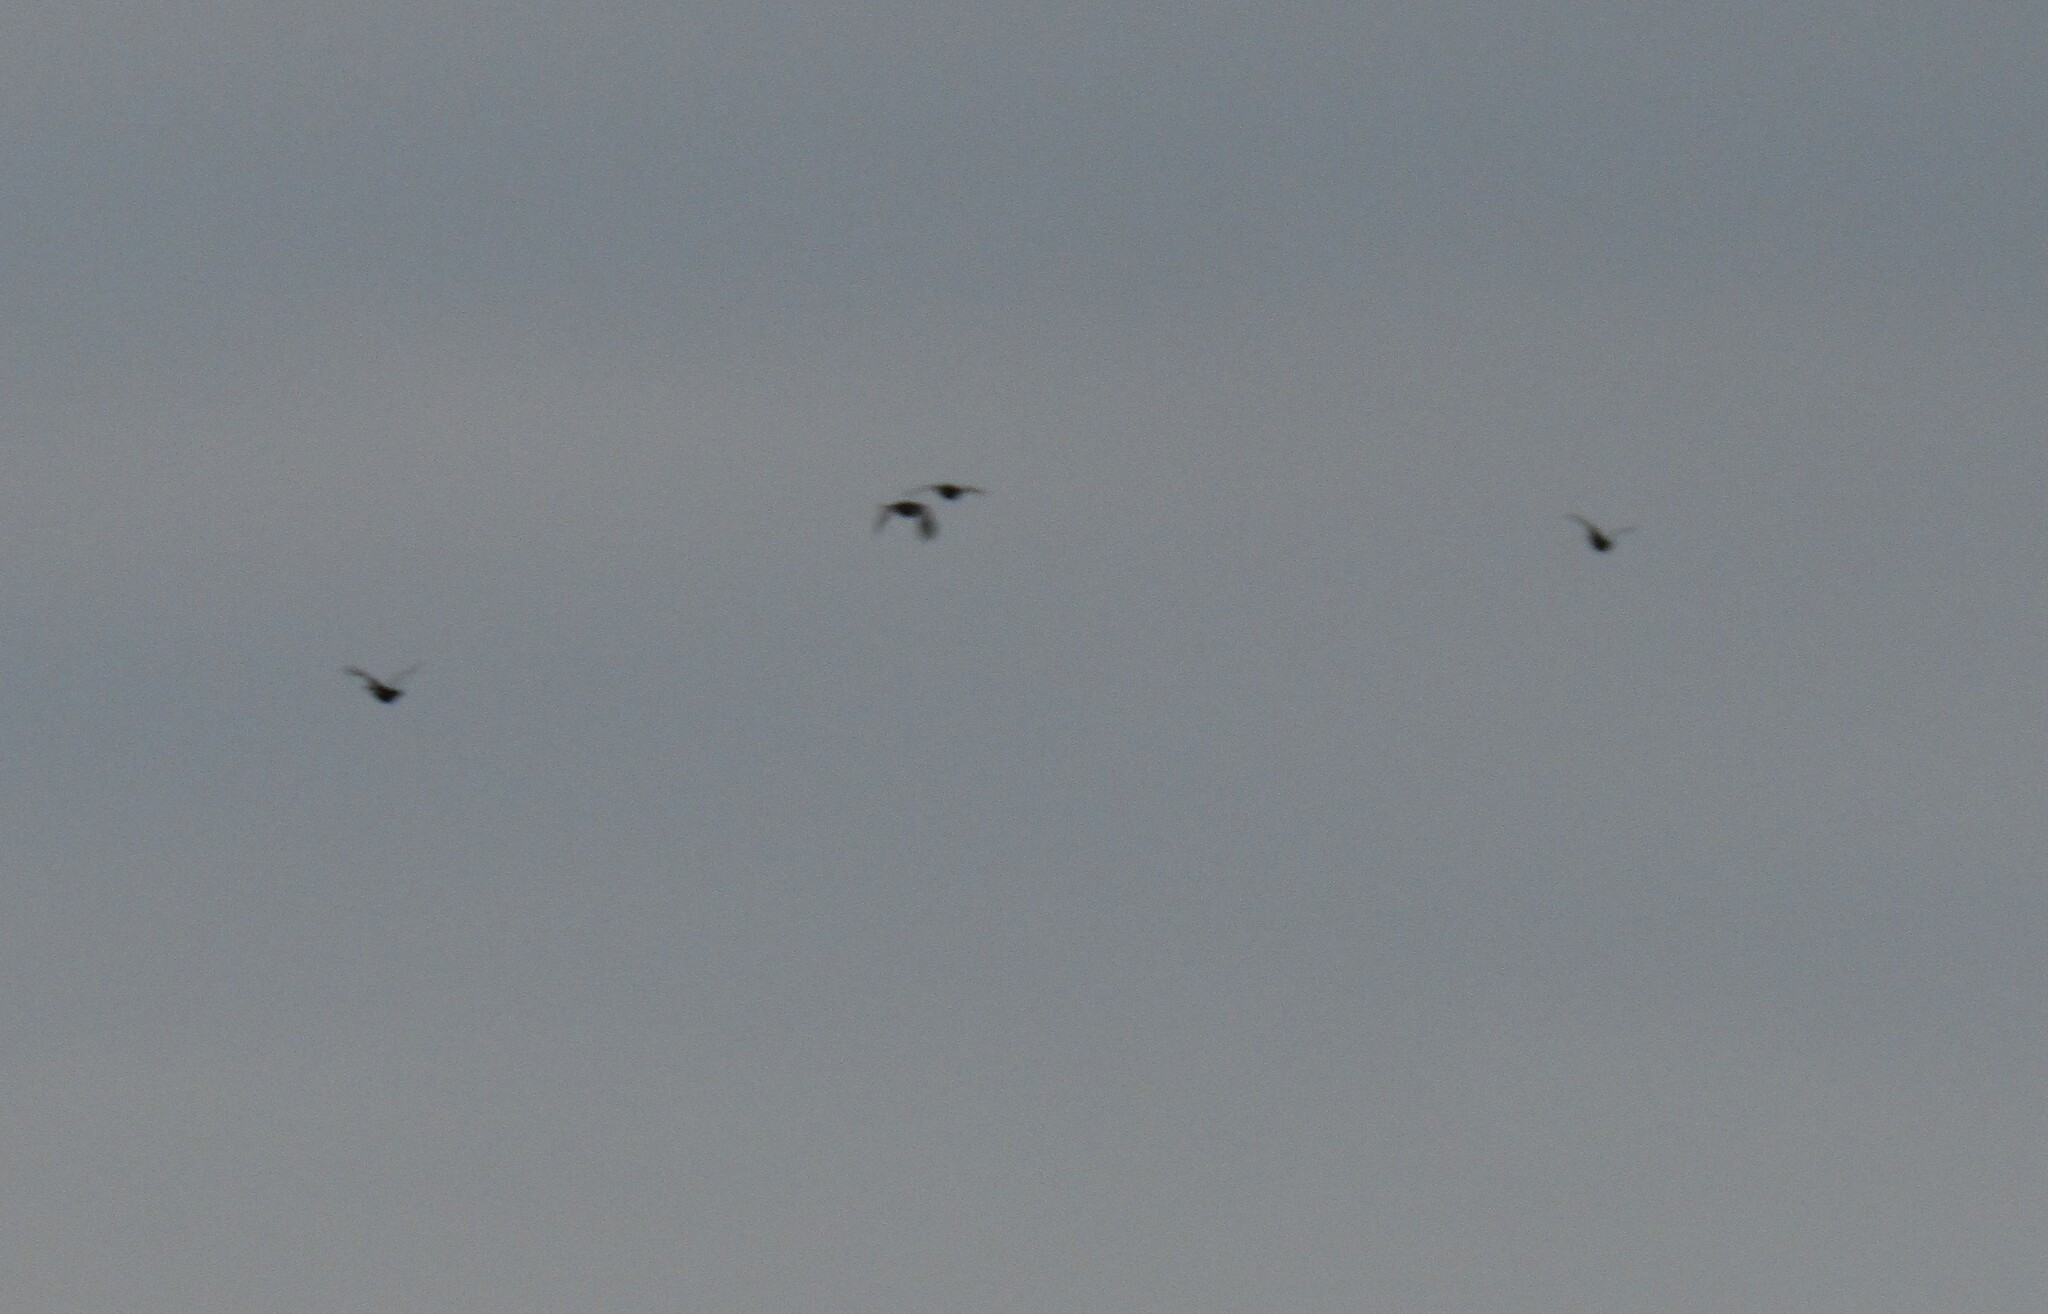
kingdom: Animalia
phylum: Chordata
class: Aves
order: Galliformes
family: Phasianidae
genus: Lyrurus
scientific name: Lyrurus tetrix
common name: Black grouse
